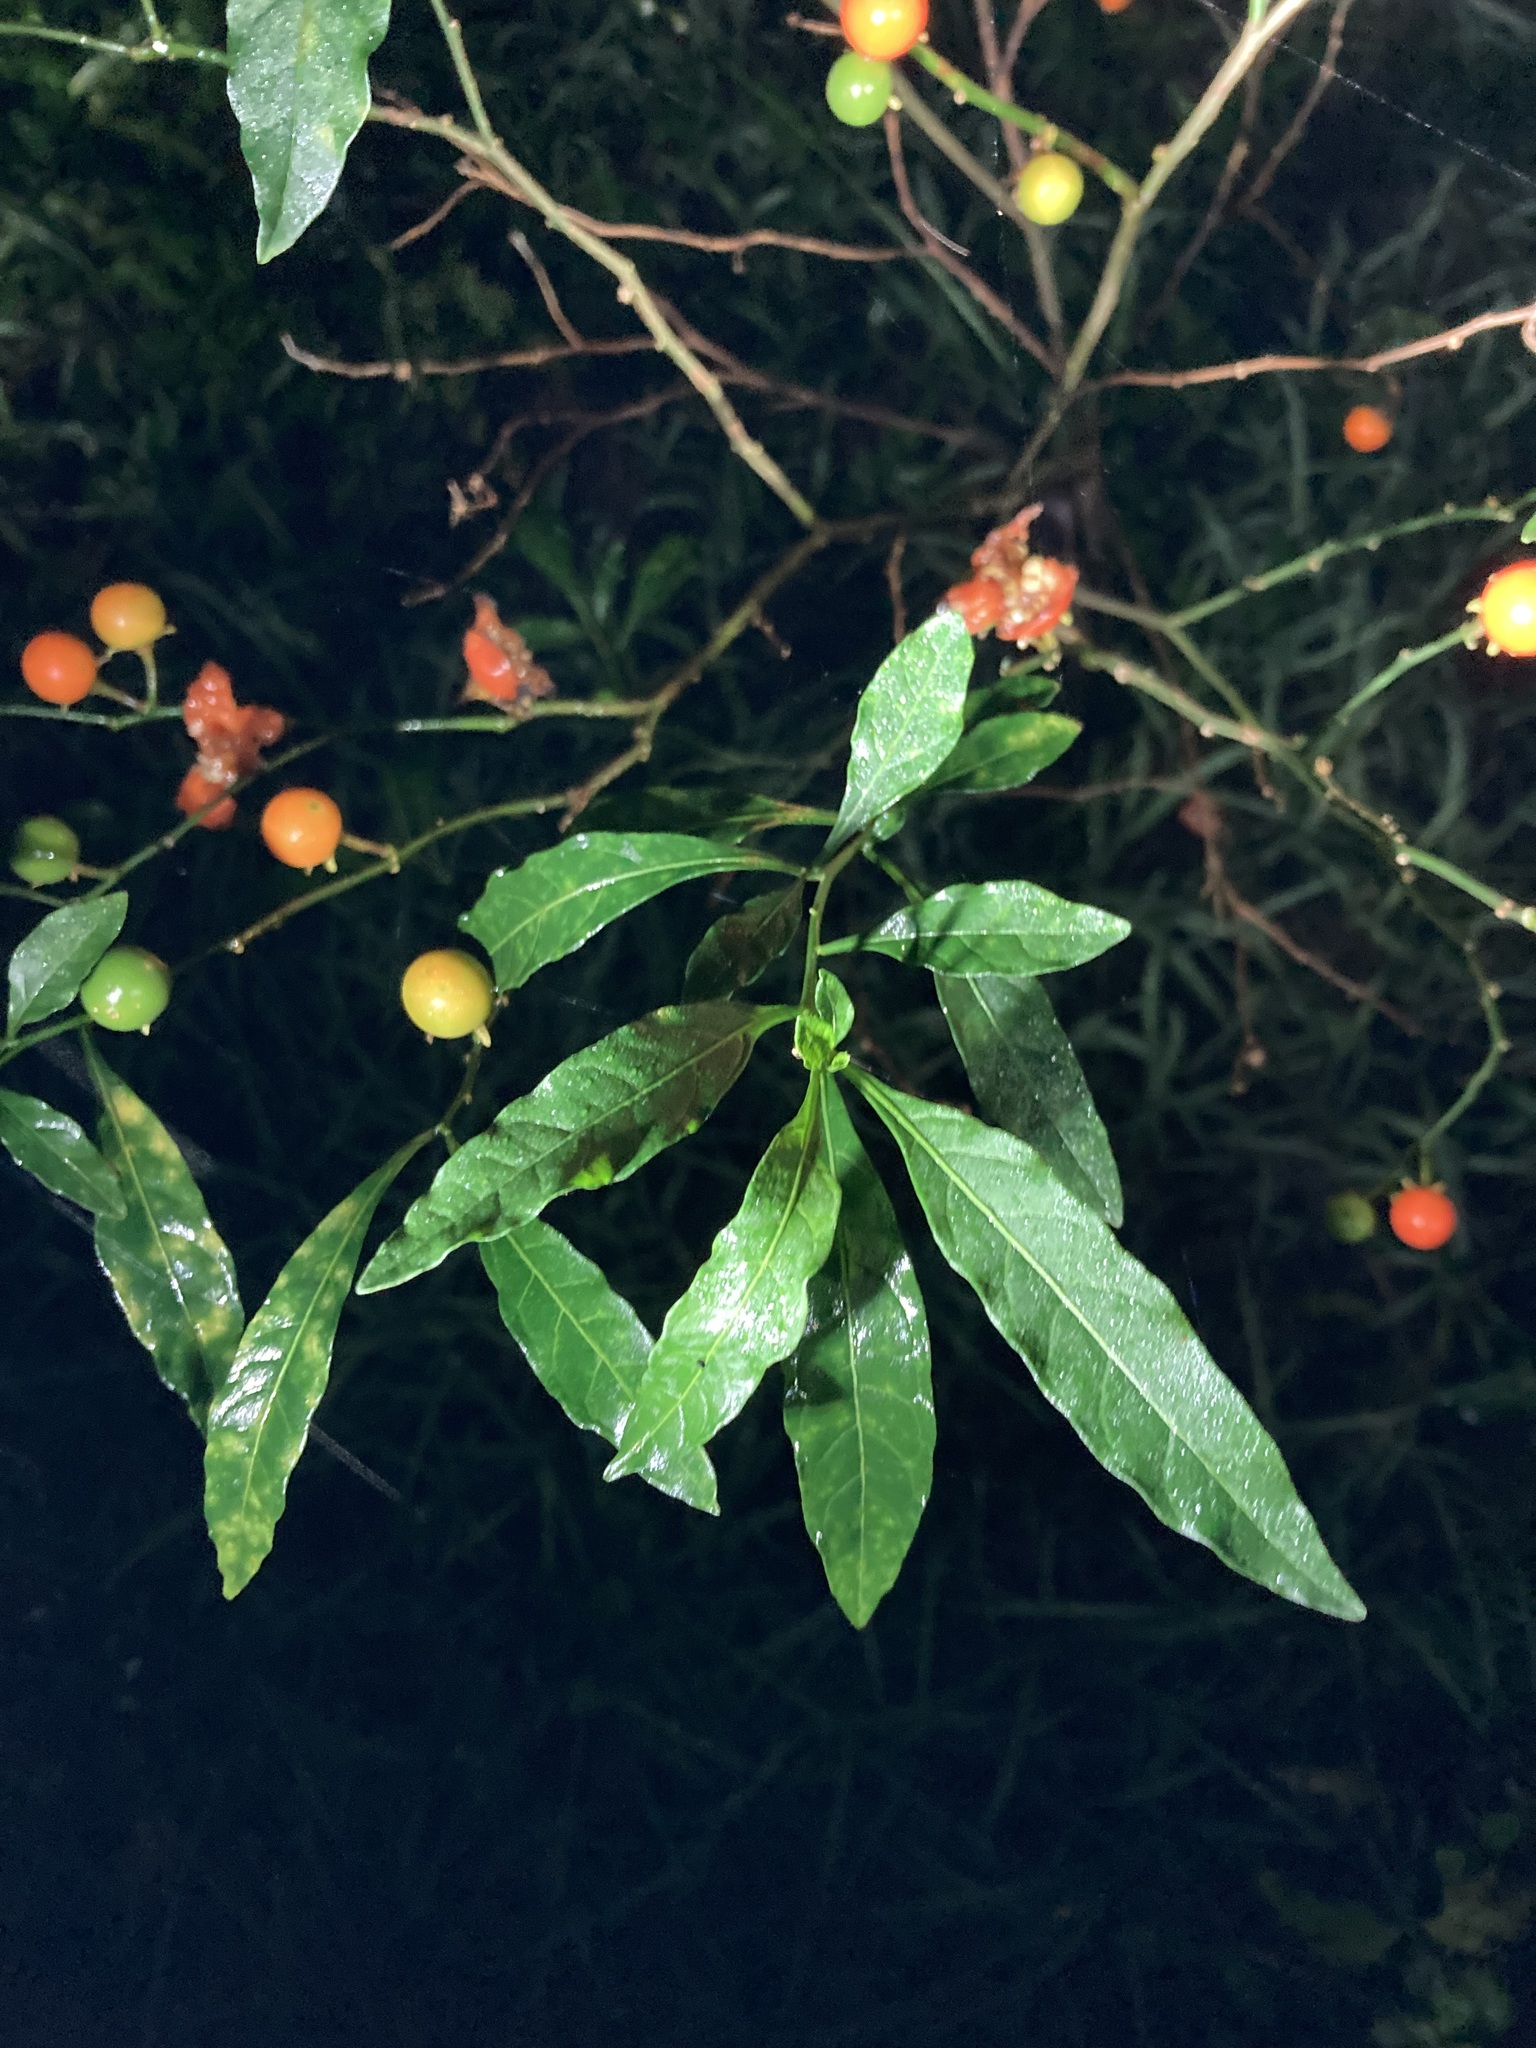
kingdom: Plantae
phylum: Tracheophyta
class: Magnoliopsida
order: Solanales
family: Solanaceae
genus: Solanum
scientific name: Solanum pseudocapsicum
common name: Jerusalem cherry
